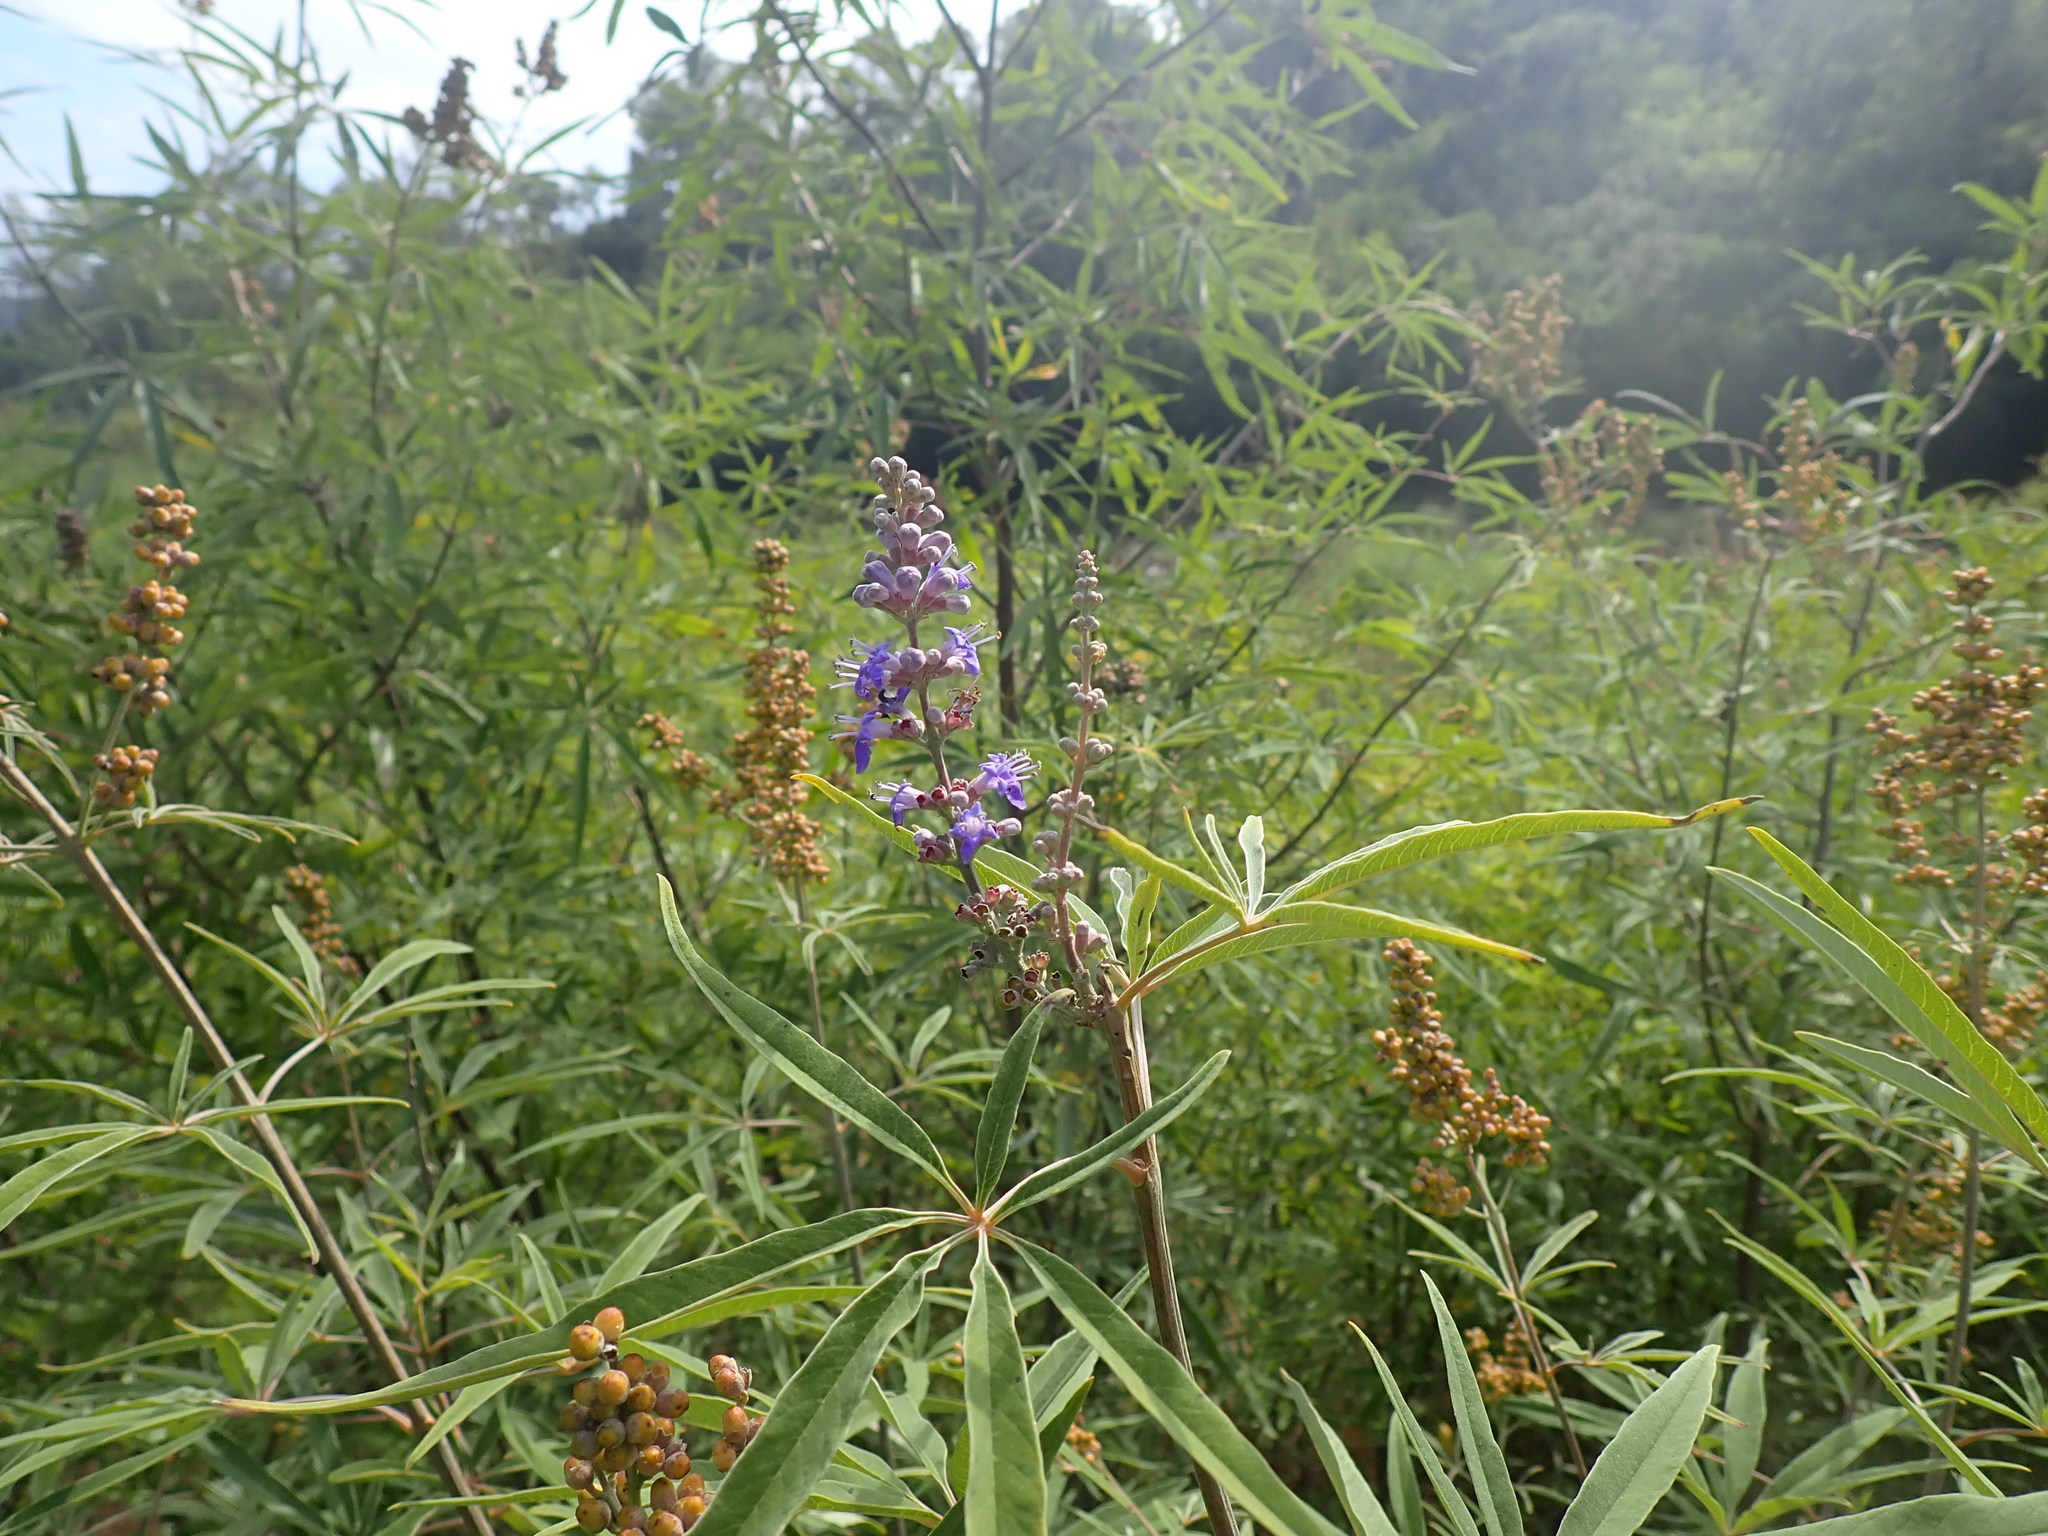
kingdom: Plantae
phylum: Tracheophyta
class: Magnoliopsida
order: Lamiales
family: Lamiaceae
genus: Vitex
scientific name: Vitex agnus-castus
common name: Chasteberry
